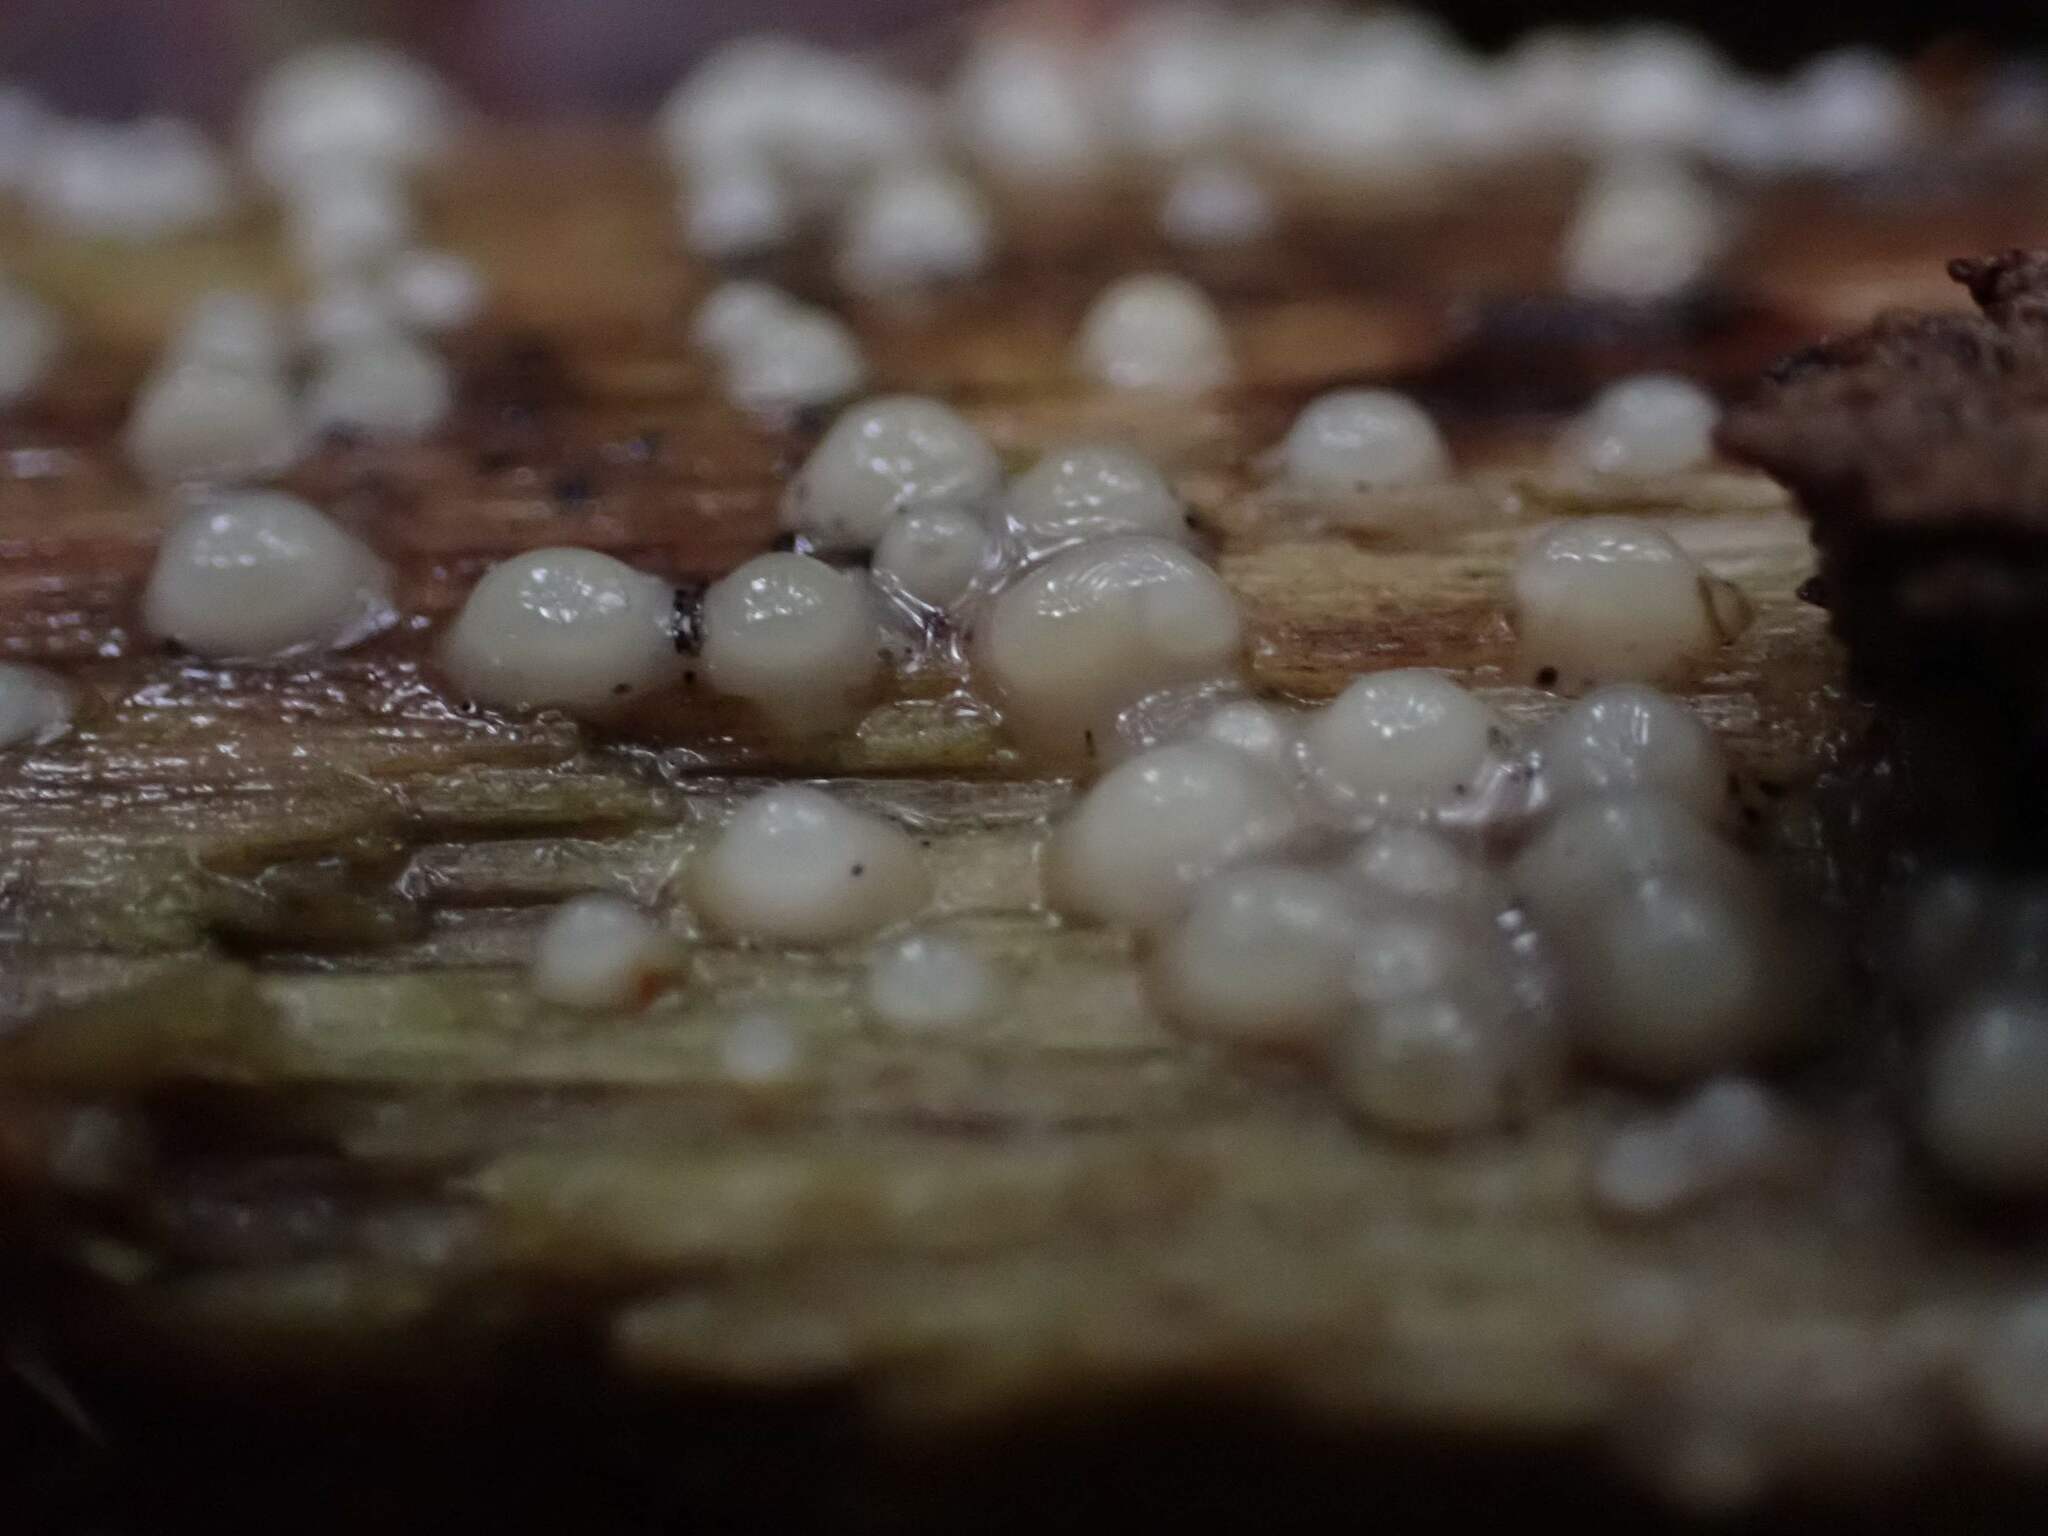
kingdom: Fungi
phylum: Basidiomycota
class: Atractiellomycetes
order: Atractiellales
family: Phleogenaceae
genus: Helicogloea
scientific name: Helicogloea compressa
